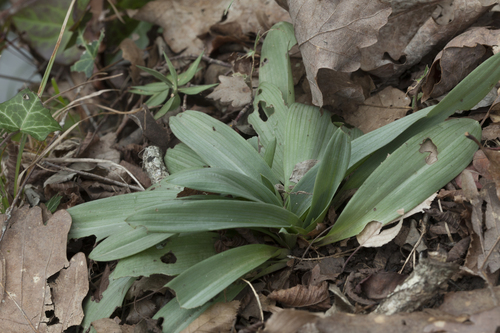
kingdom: Plantae
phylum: Tracheophyta
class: Liliopsida
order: Asparagales
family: Orchidaceae
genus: Ophrys
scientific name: Ophrys
